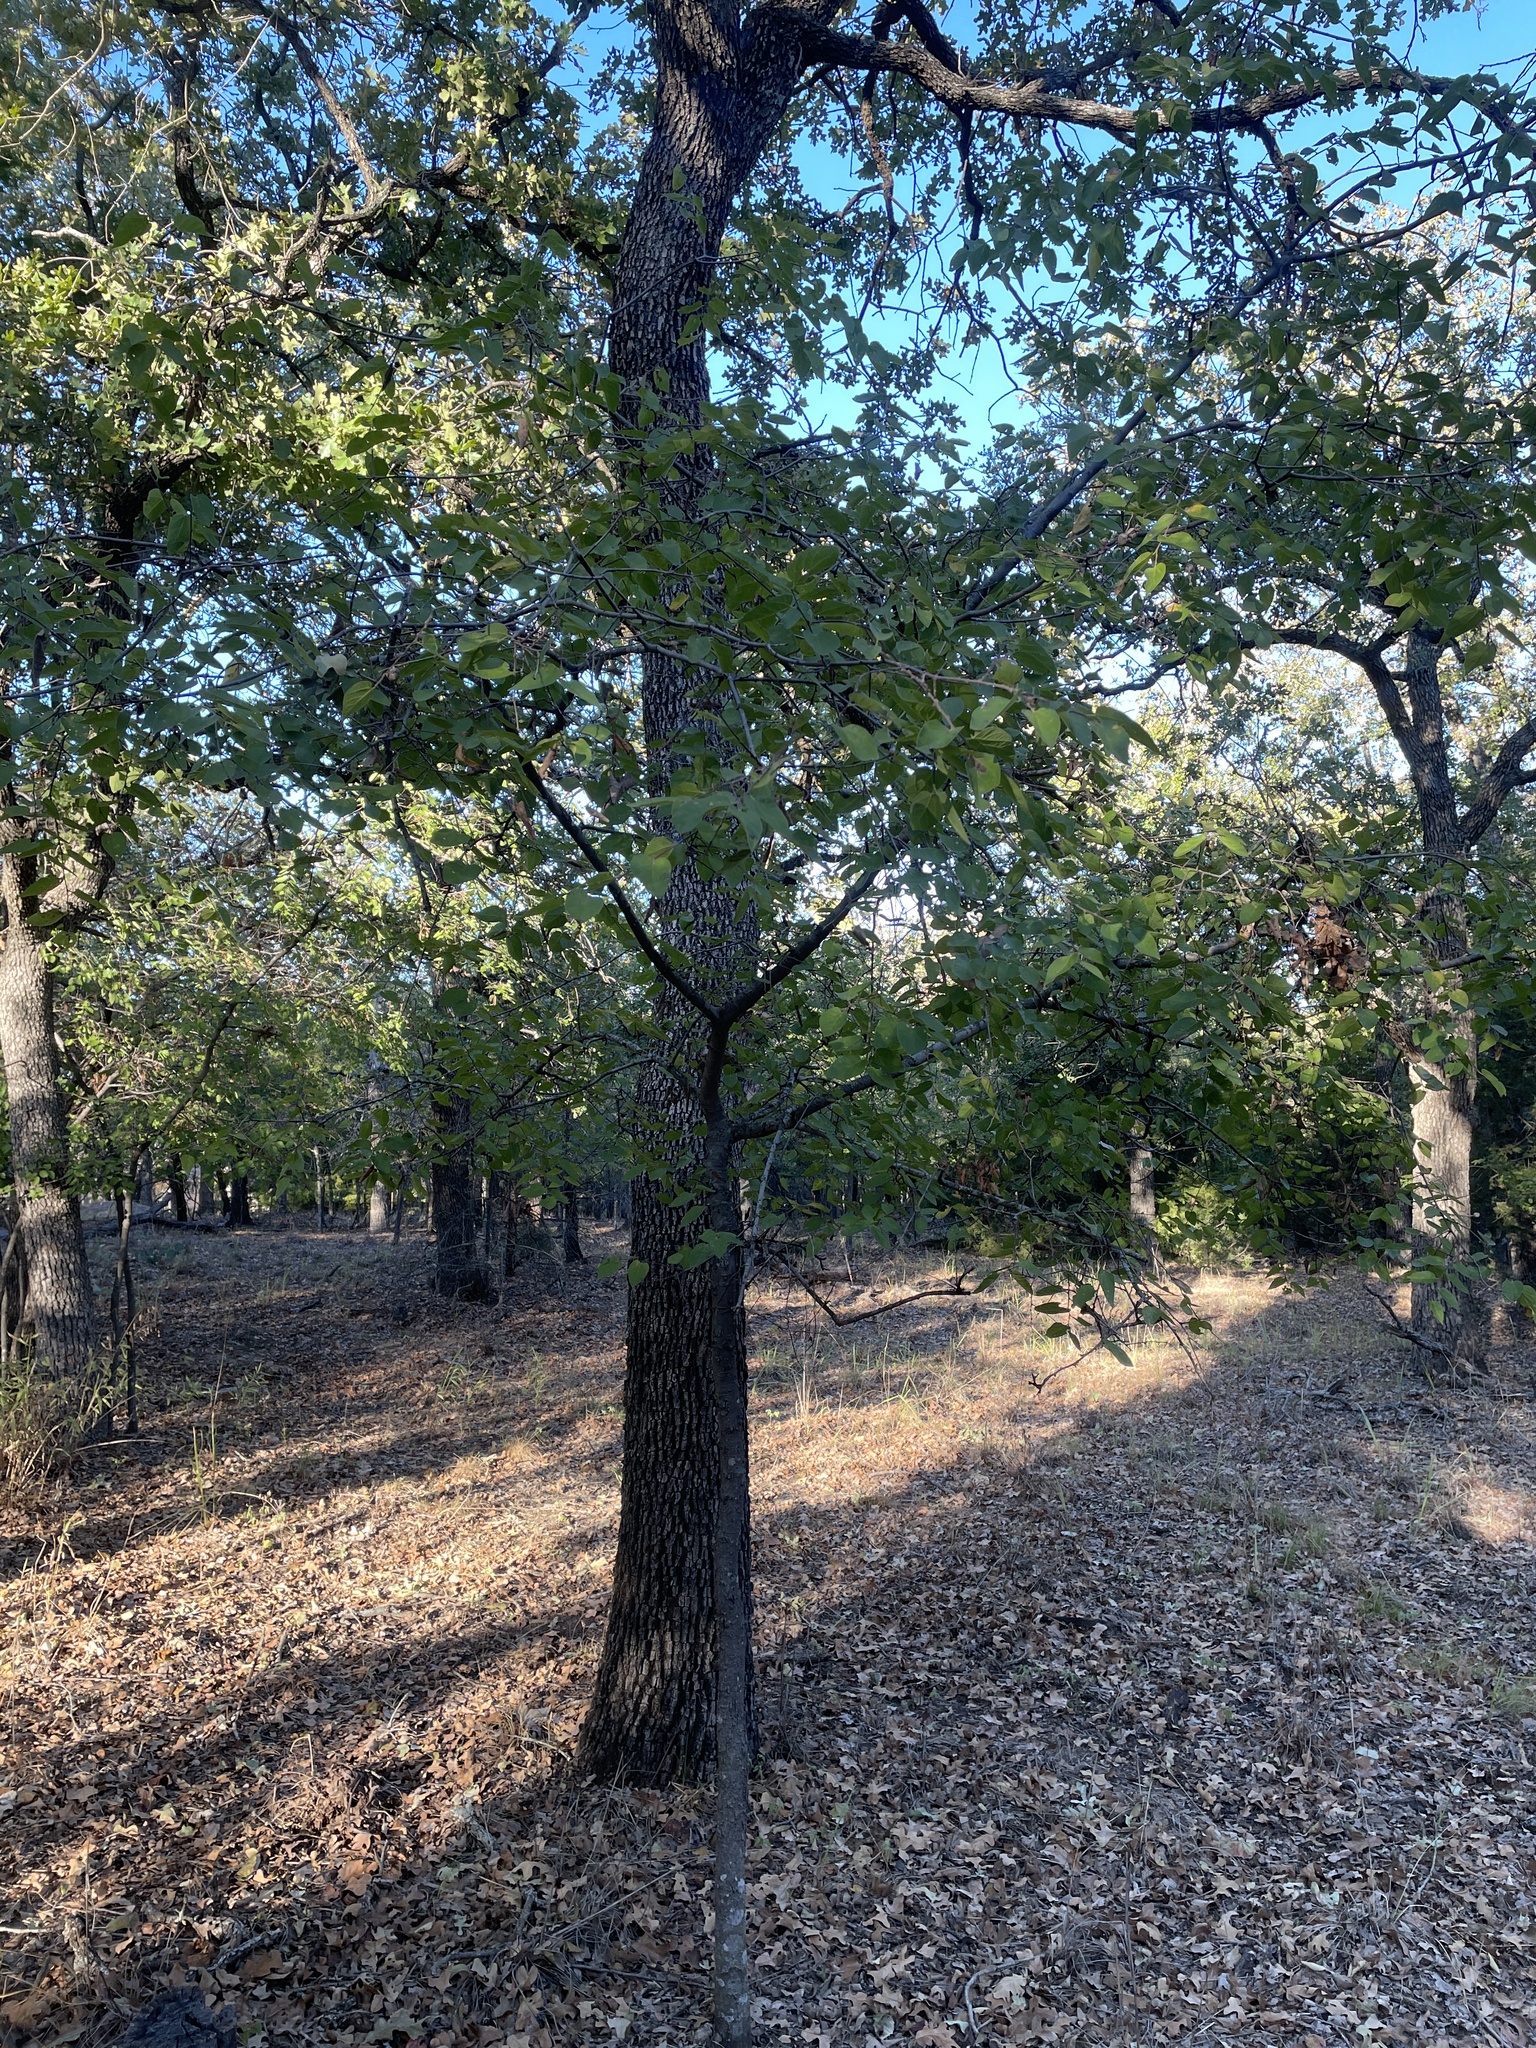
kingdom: Plantae
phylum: Tracheophyta
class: Magnoliopsida
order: Rosales
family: Cannabaceae
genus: Celtis
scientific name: Celtis reticulata
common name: Netleaf hackberry
